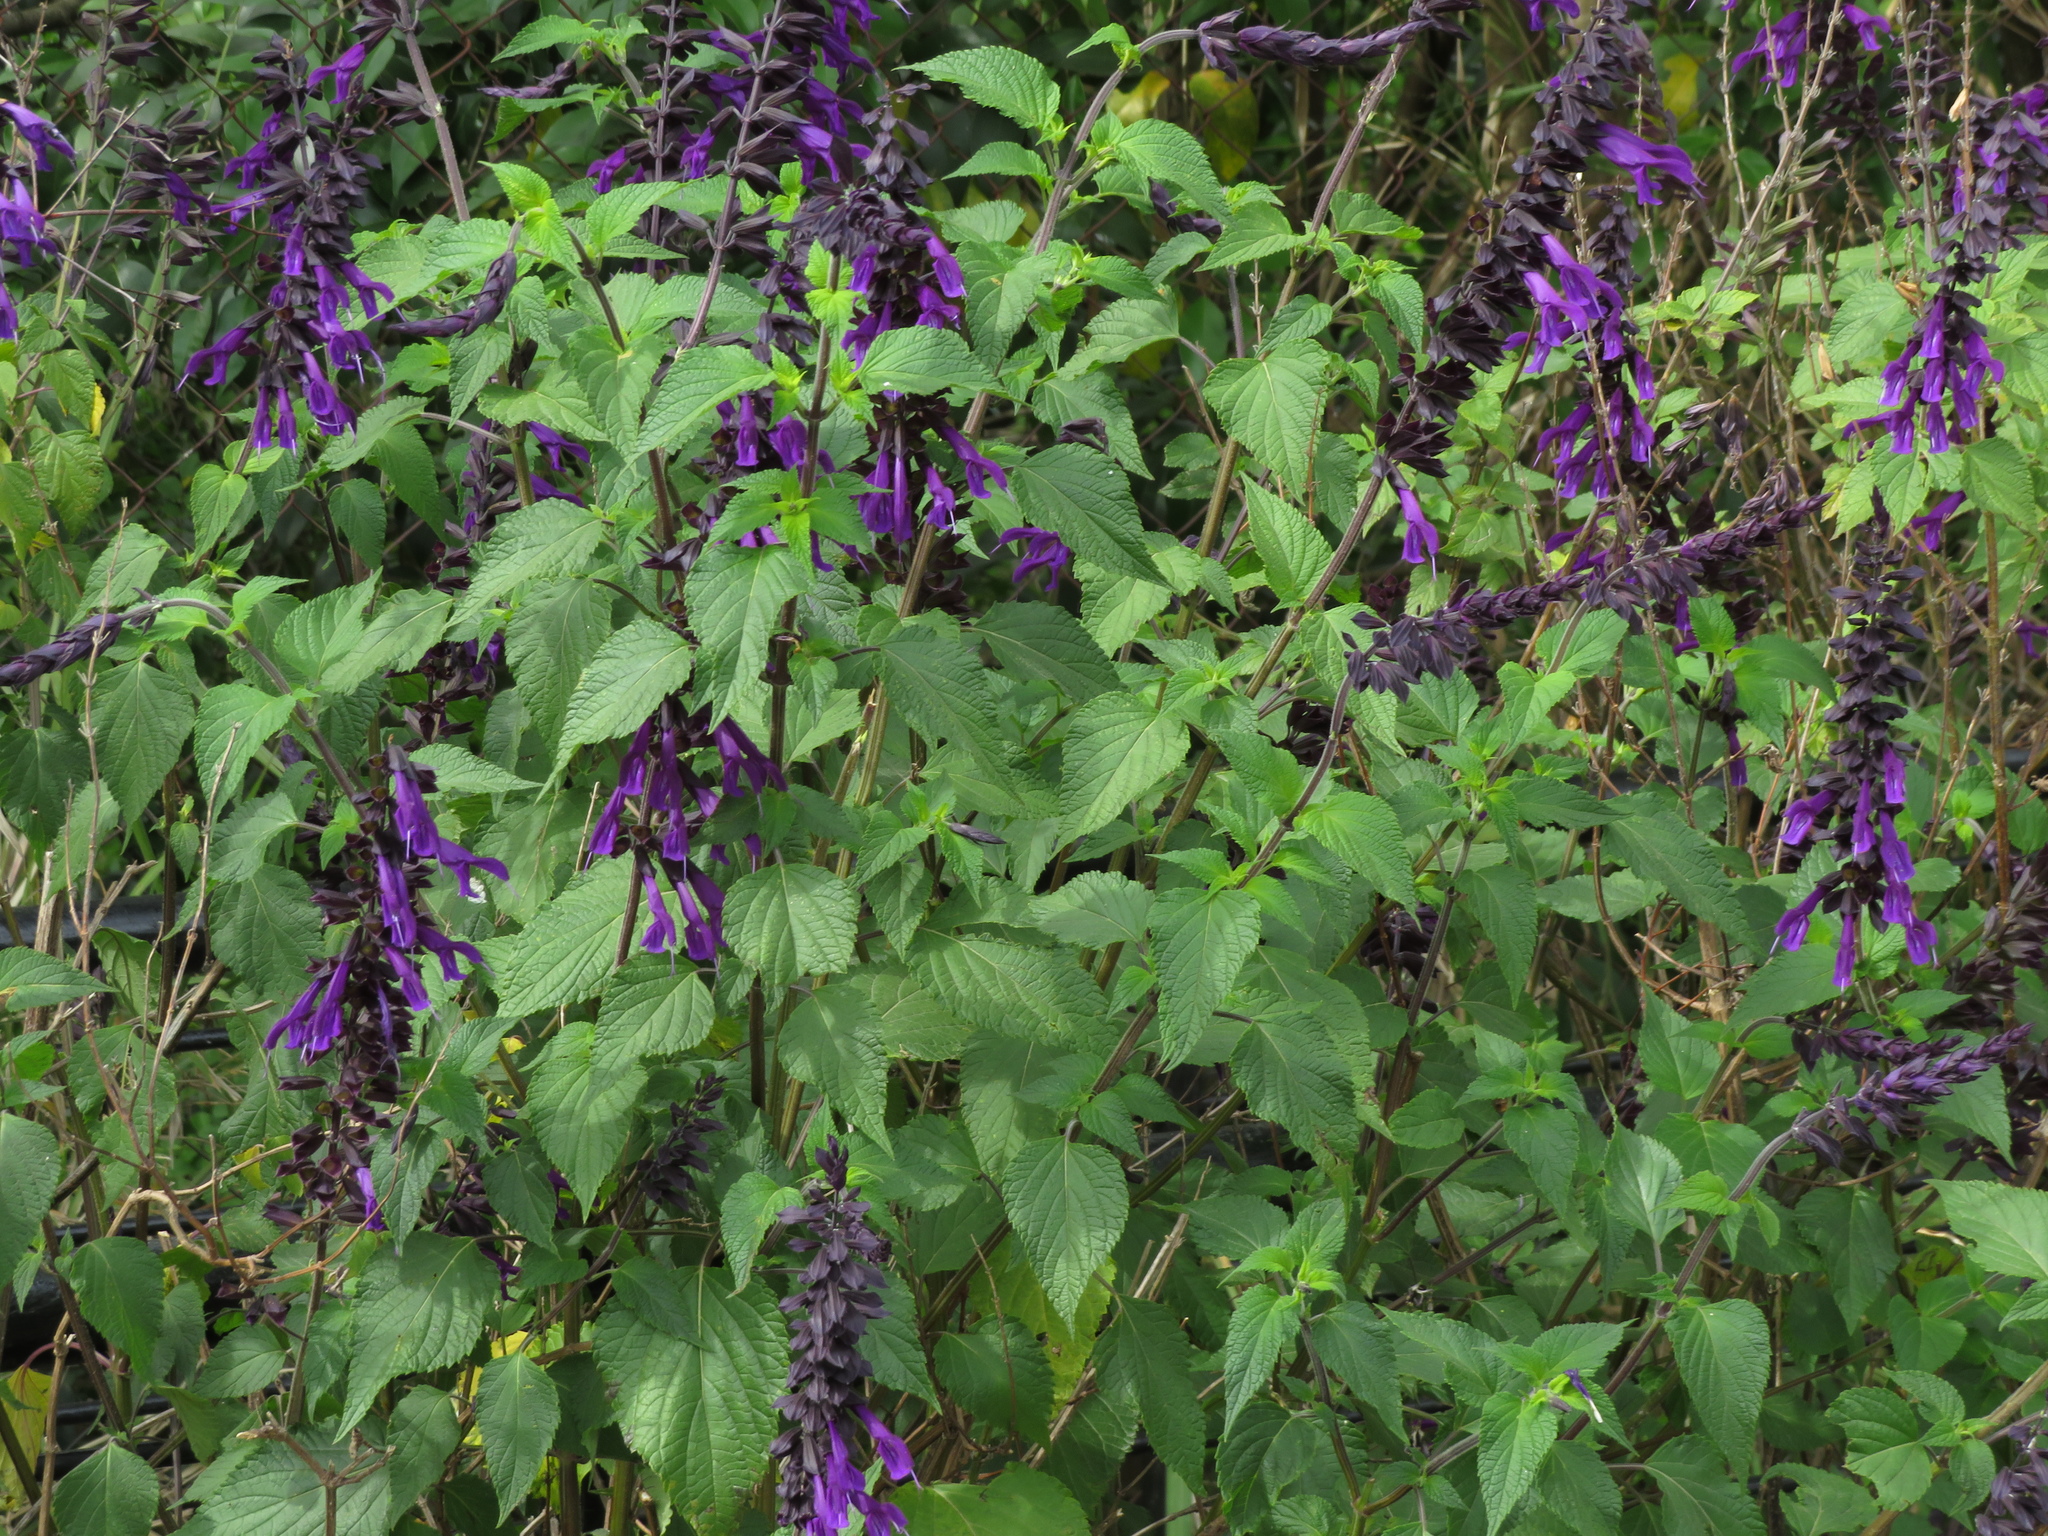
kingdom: Plantae
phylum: Tracheophyta
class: Magnoliopsida
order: Lamiales
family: Lamiaceae
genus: Salvia
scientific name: Salvia guaranitica
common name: Anise-scented sage
